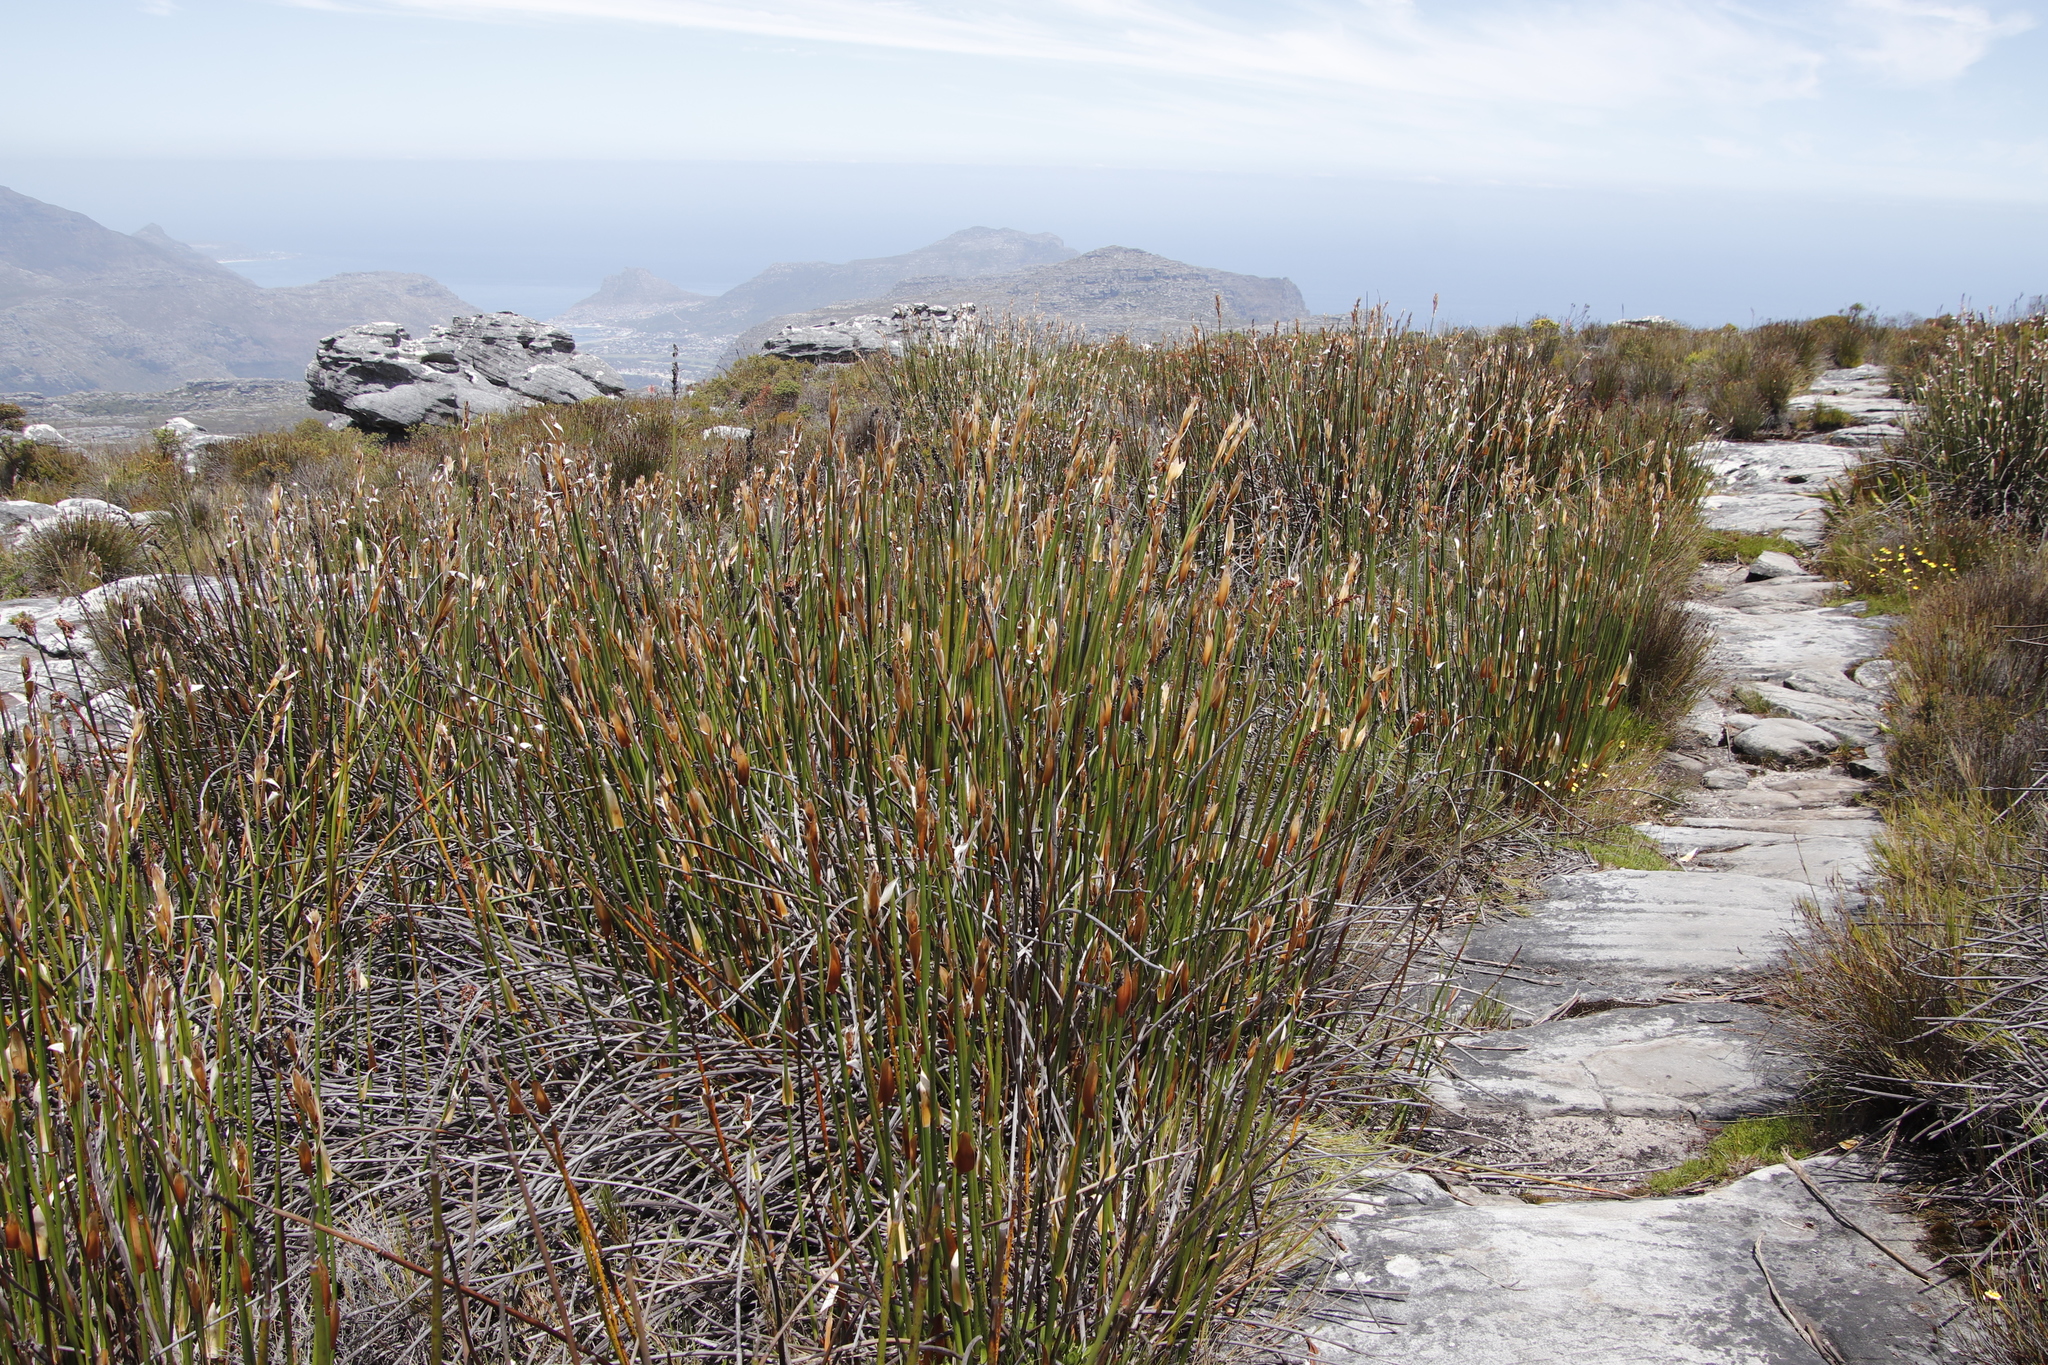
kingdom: Plantae
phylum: Tracheophyta
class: Liliopsida
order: Poales
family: Restionaceae
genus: Elegia
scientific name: Elegia mucronata
